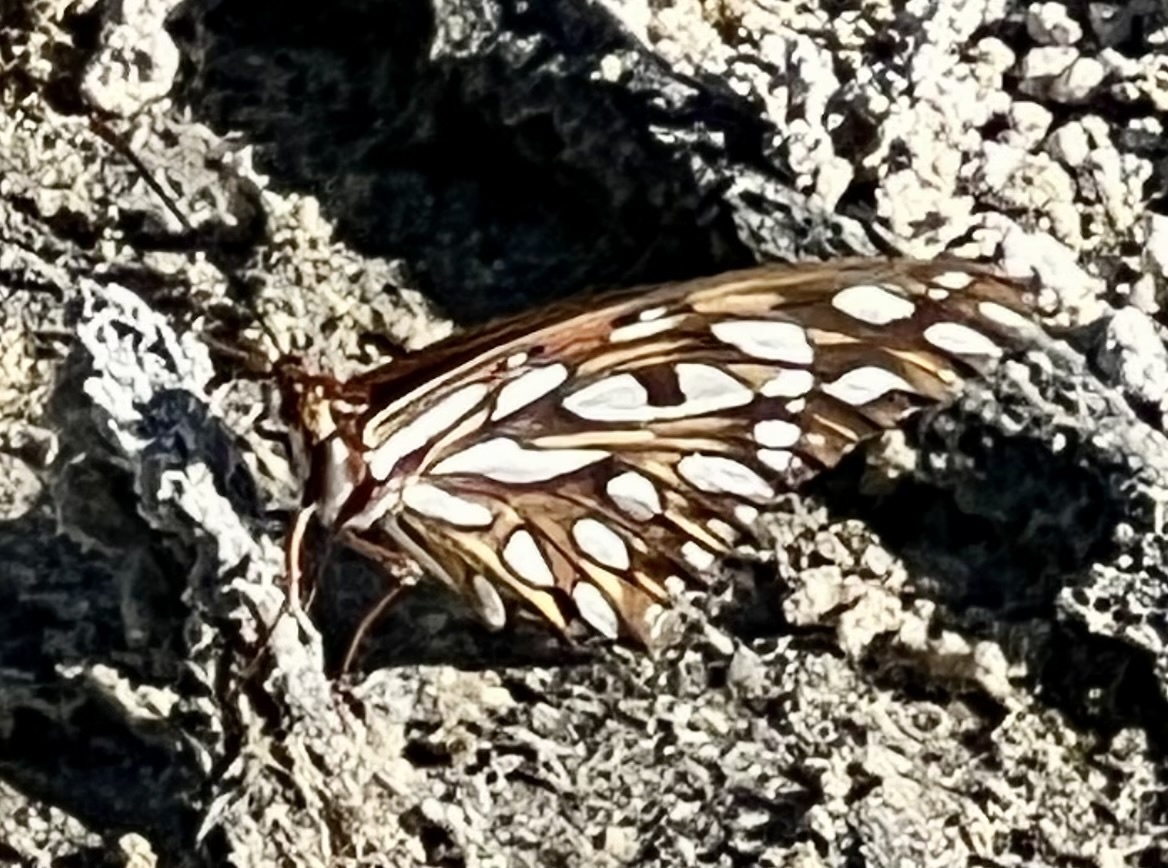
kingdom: Animalia
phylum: Arthropoda
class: Insecta
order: Lepidoptera
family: Nymphalidae
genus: Dione
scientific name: Dione vanillae
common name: Gulf fritillary
